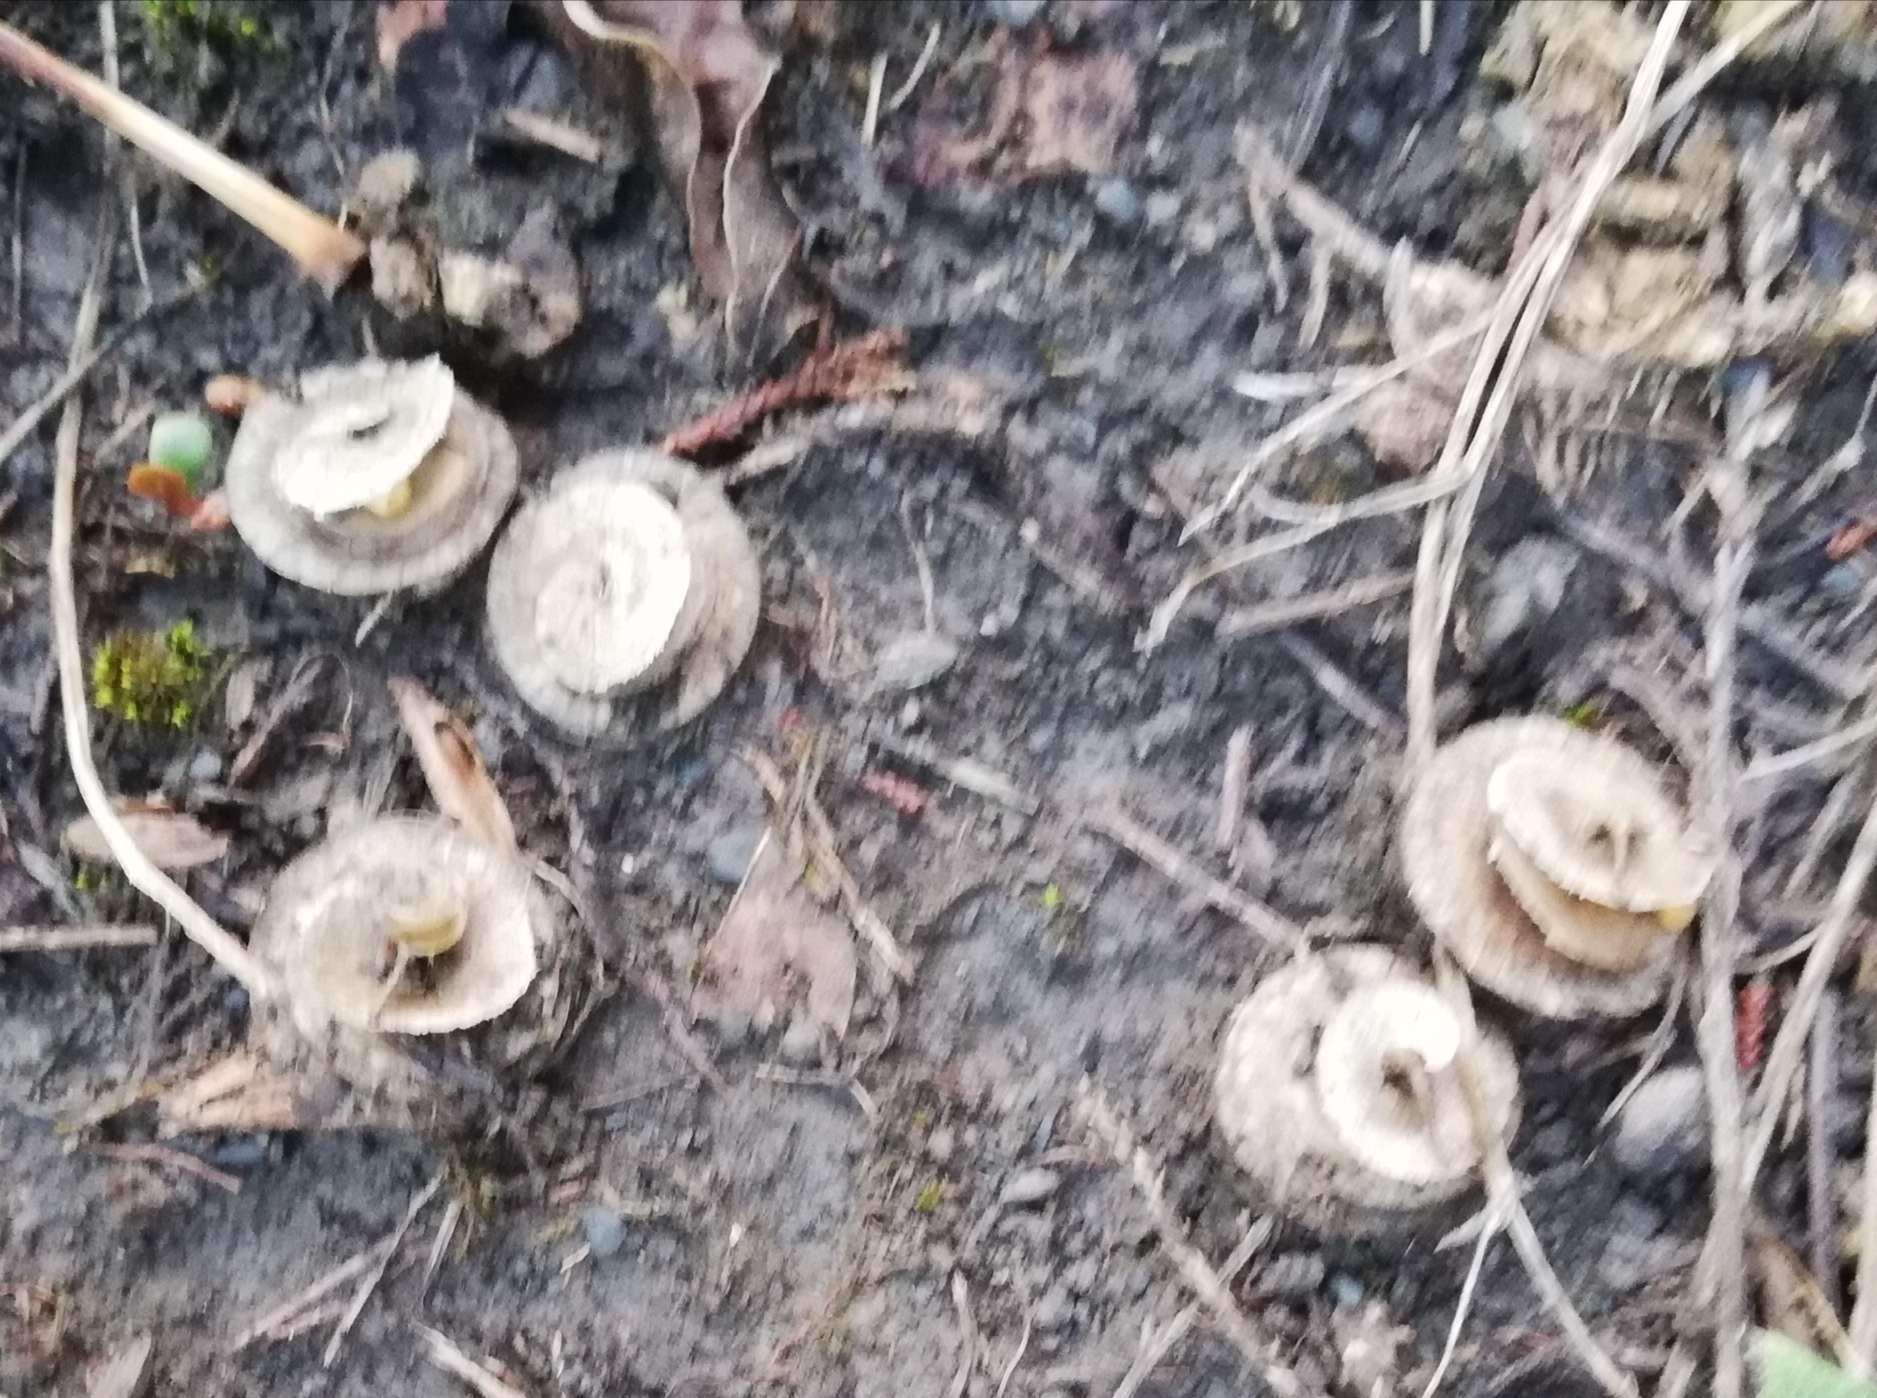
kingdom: Plantae
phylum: Tracheophyta
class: Magnoliopsida
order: Fabales
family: Fabaceae
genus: Medicago
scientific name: Medicago orbicularis
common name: Button medick
